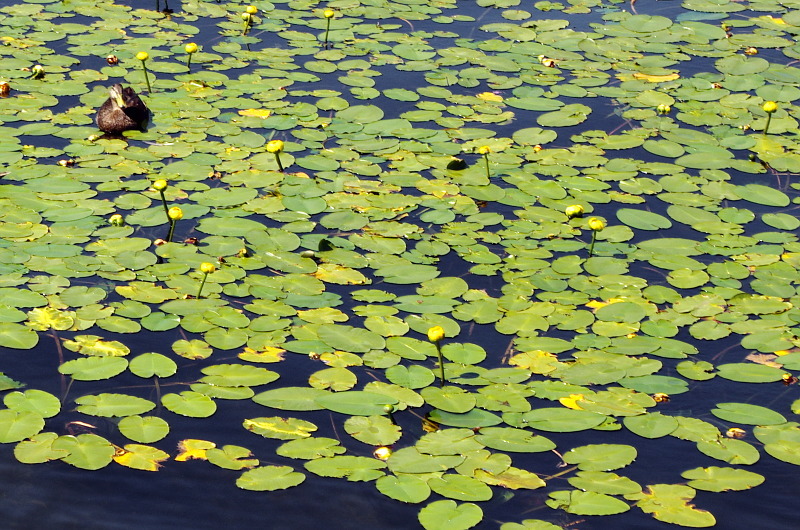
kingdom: Plantae
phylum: Tracheophyta
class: Magnoliopsida
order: Nymphaeales
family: Nymphaeaceae
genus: Nuphar
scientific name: Nuphar variegata
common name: Beaver-root
